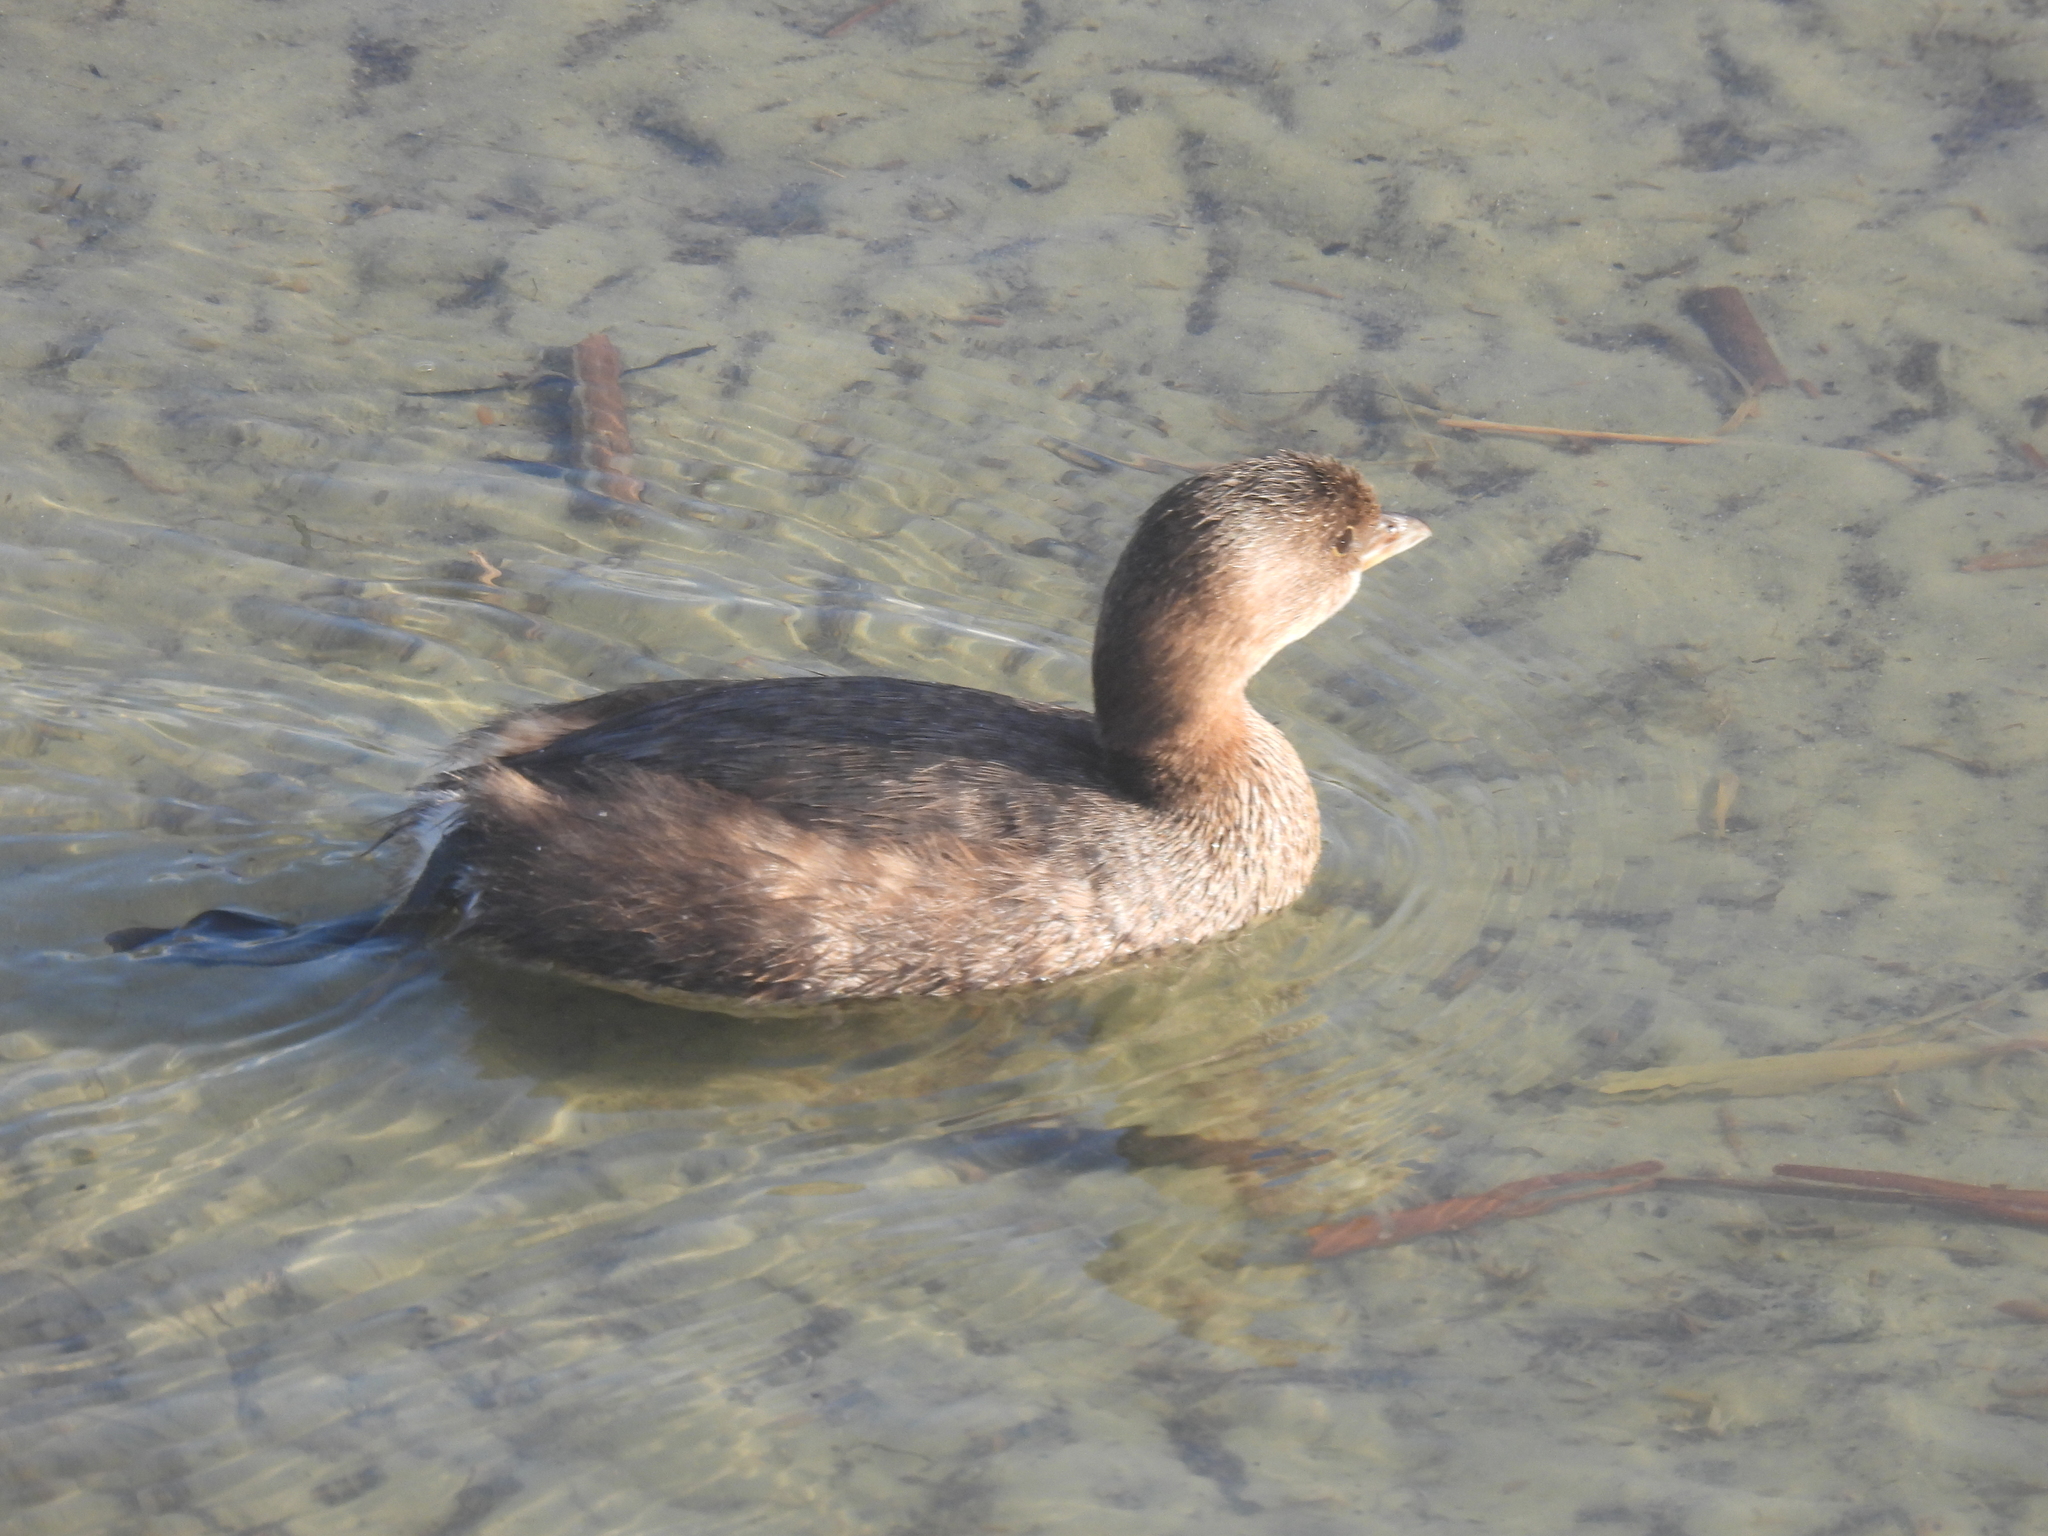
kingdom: Animalia
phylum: Chordata
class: Aves
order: Podicipediformes
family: Podicipedidae
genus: Podilymbus
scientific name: Podilymbus podiceps
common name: Pied-billed grebe
